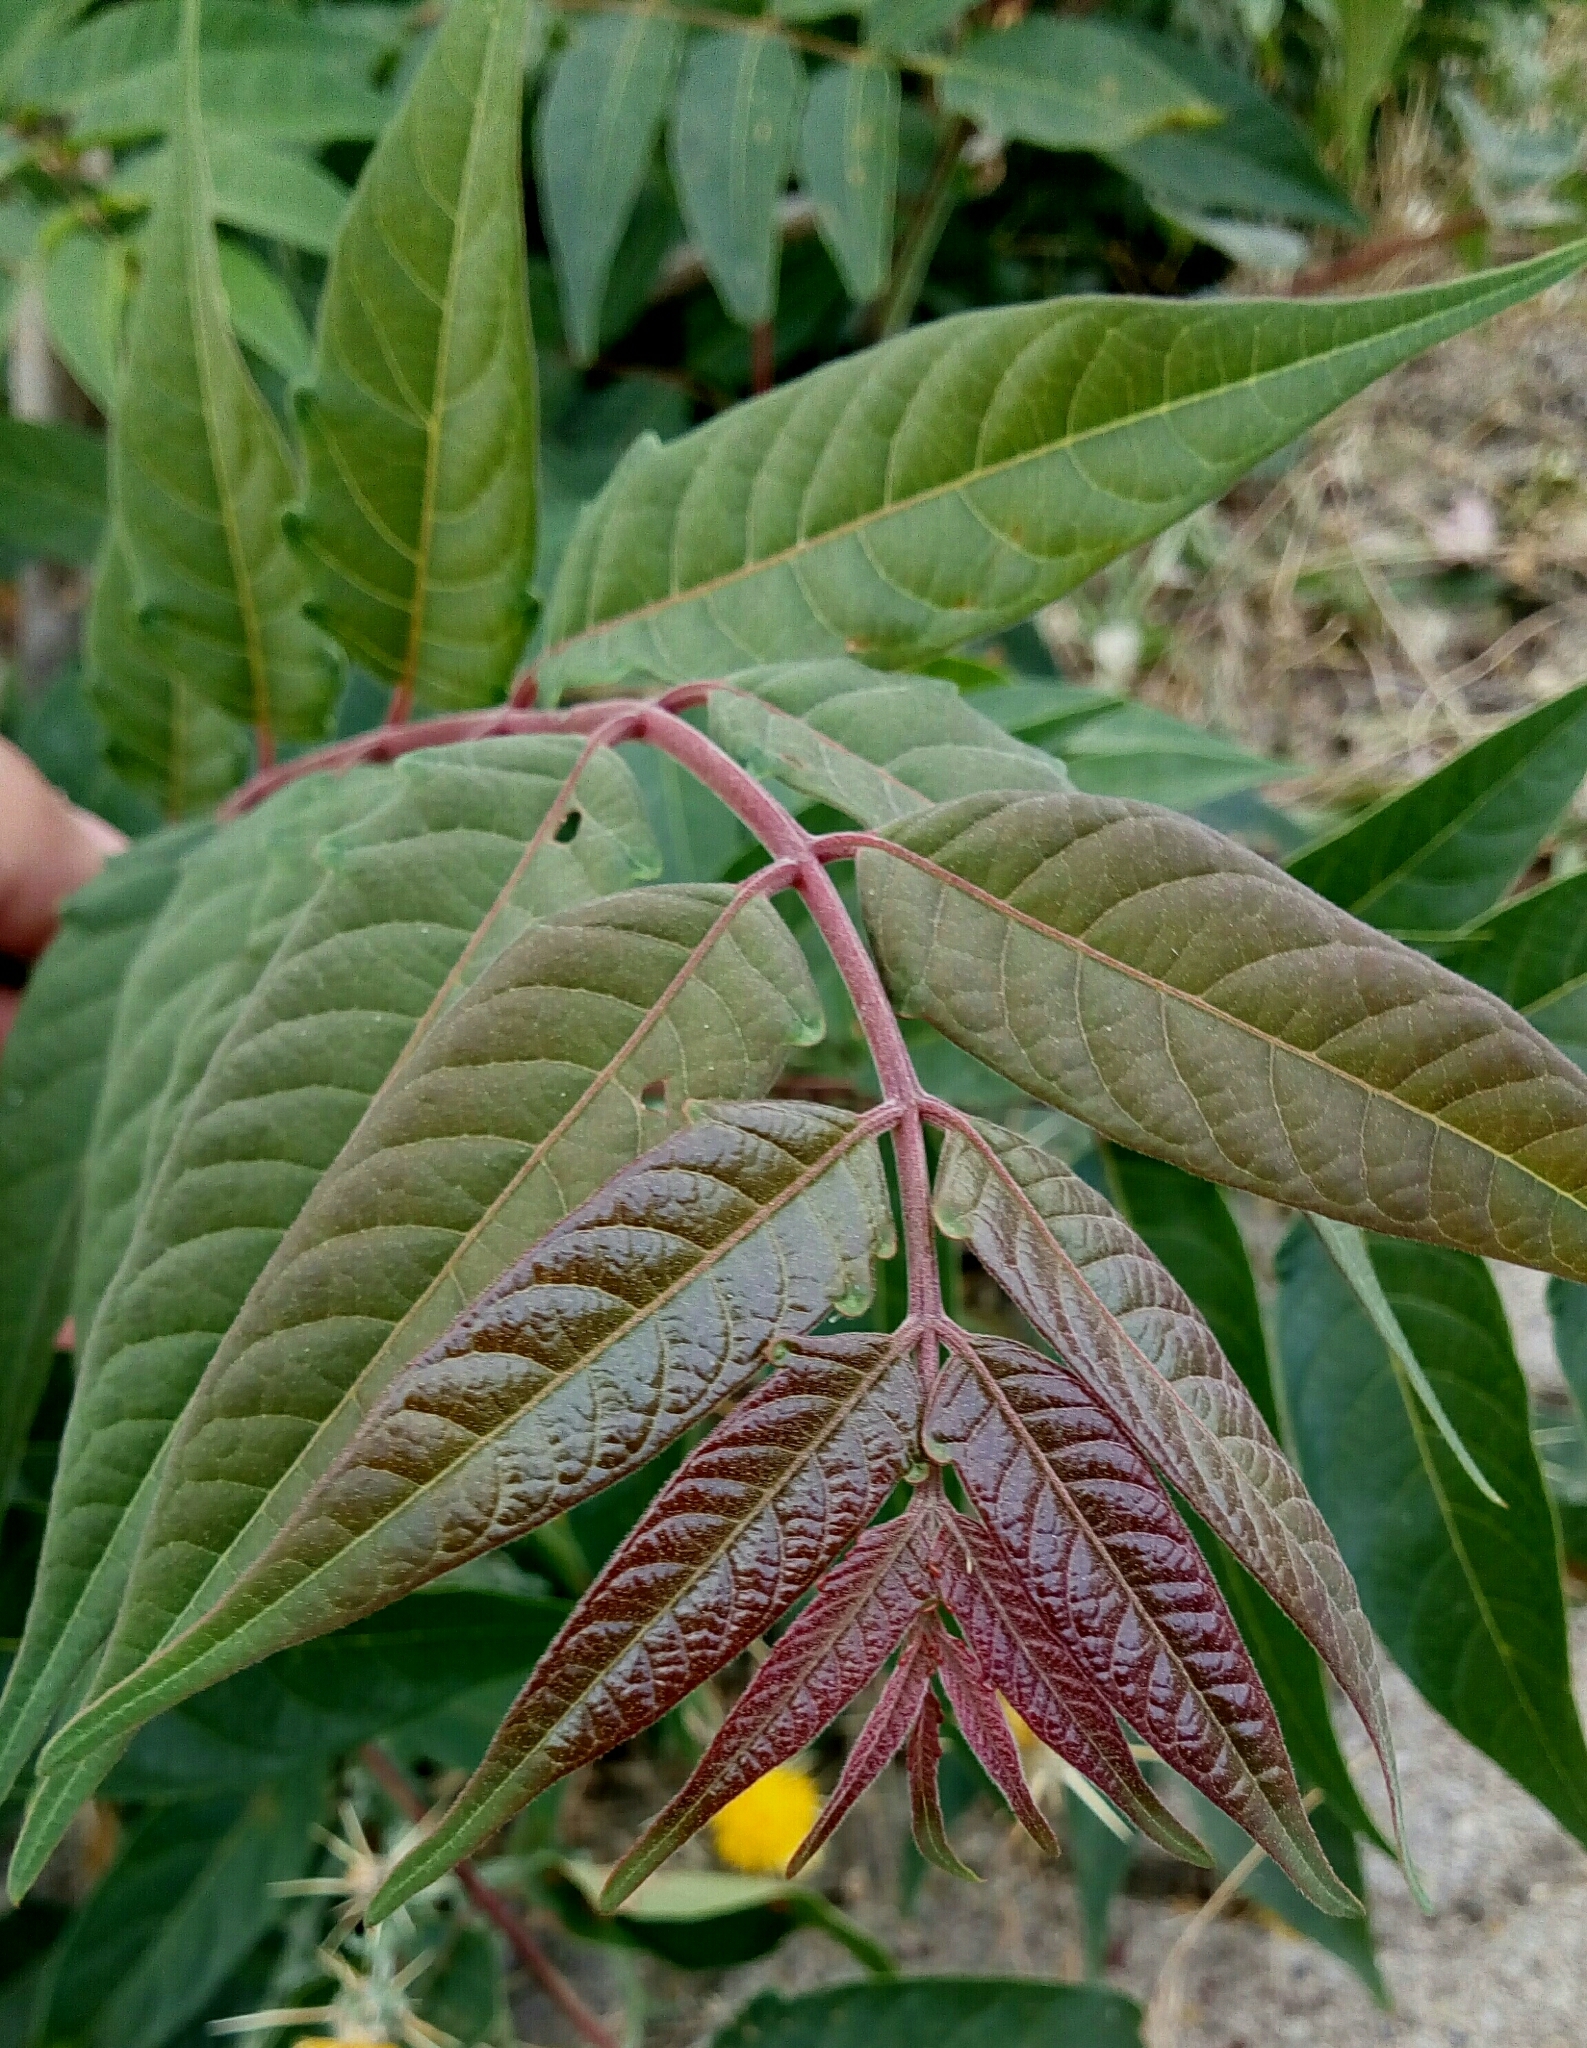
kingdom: Plantae
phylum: Tracheophyta
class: Magnoliopsida
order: Sapindales
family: Simaroubaceae
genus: Ailanthus
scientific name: Ailanthus altissima
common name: Tree-of-heaven
